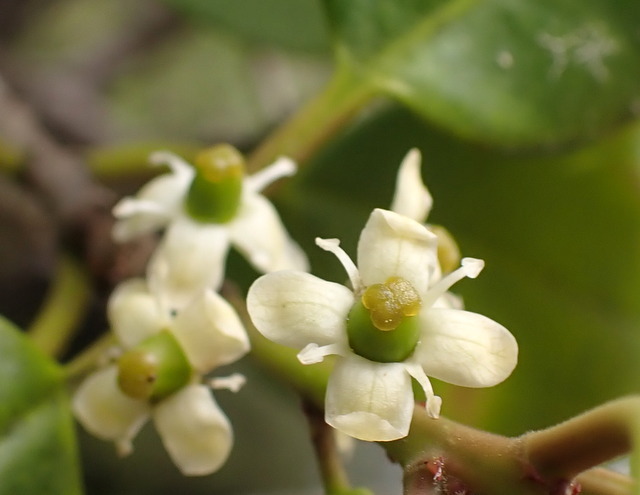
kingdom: Plantae
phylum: Tracheophyta
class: Magnoliopsida
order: Aquifoliales
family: Aquifoliaceae
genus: Ilex
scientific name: Ilex opaca
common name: American holly
